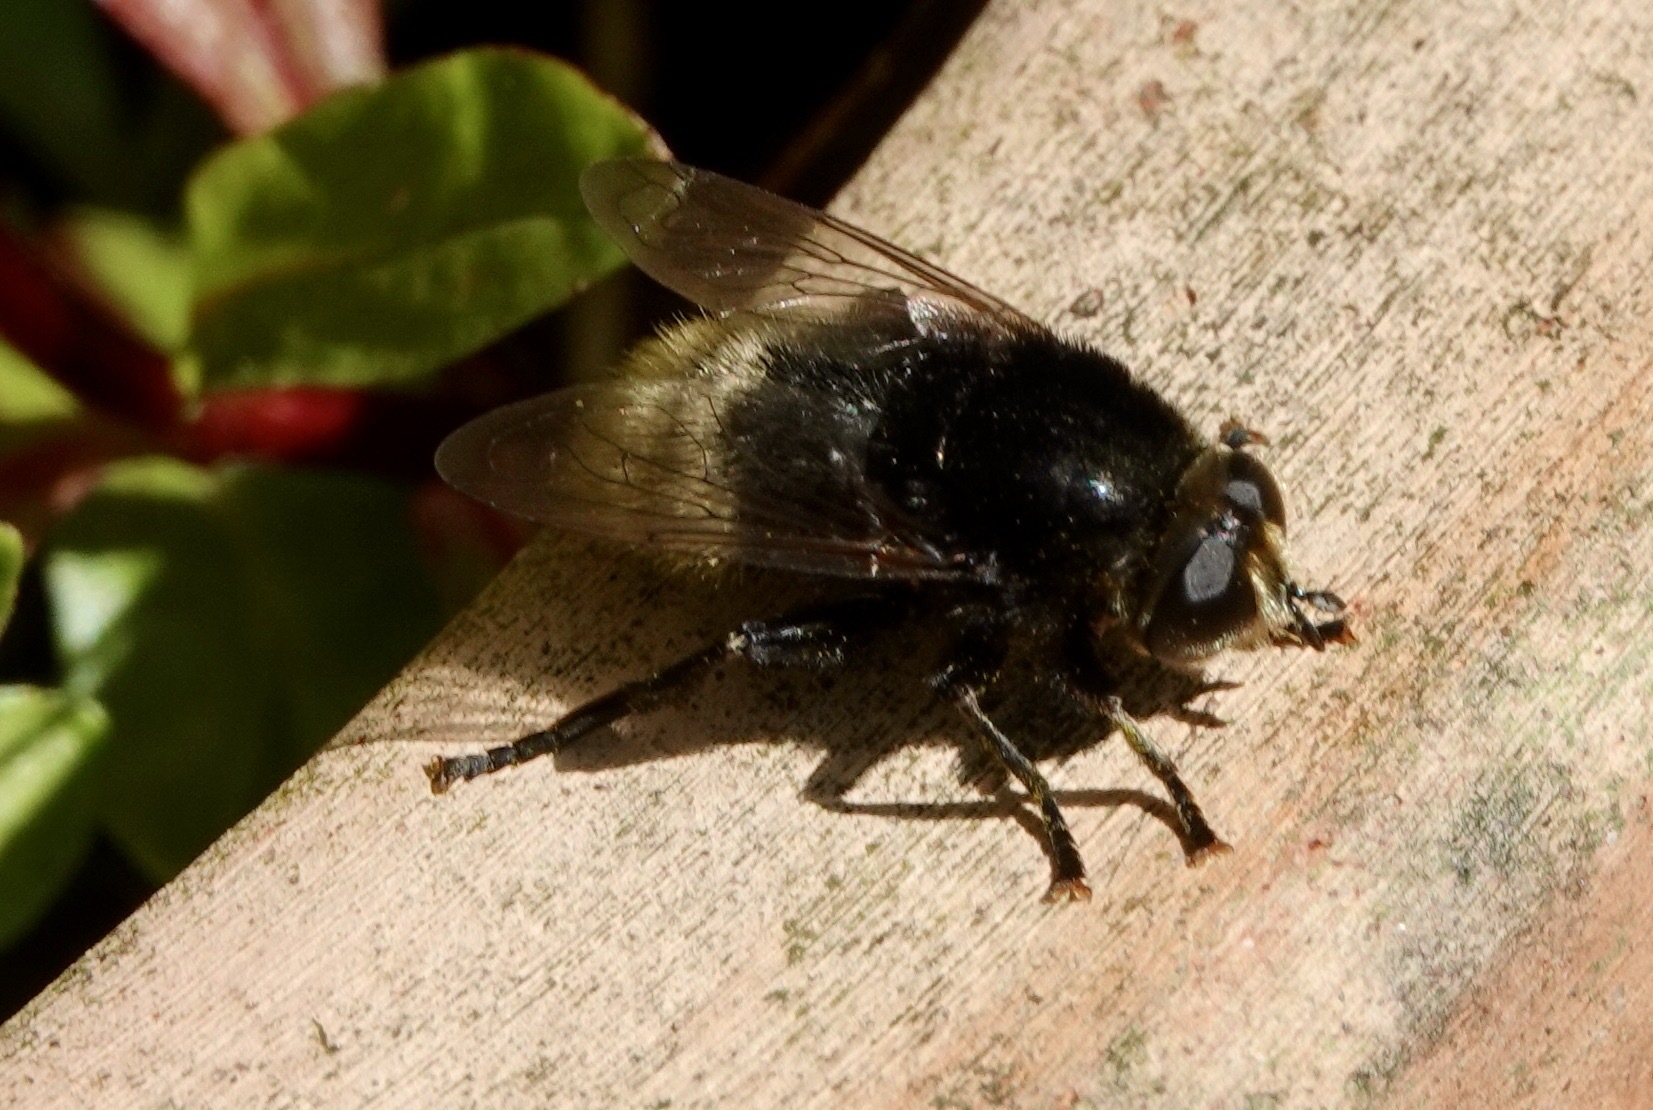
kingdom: Animalia
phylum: Arthropoda
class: Insecta
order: Diptera
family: Syrphidae
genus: Merodon
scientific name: Merodon equestris
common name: Greater bulb-fly
